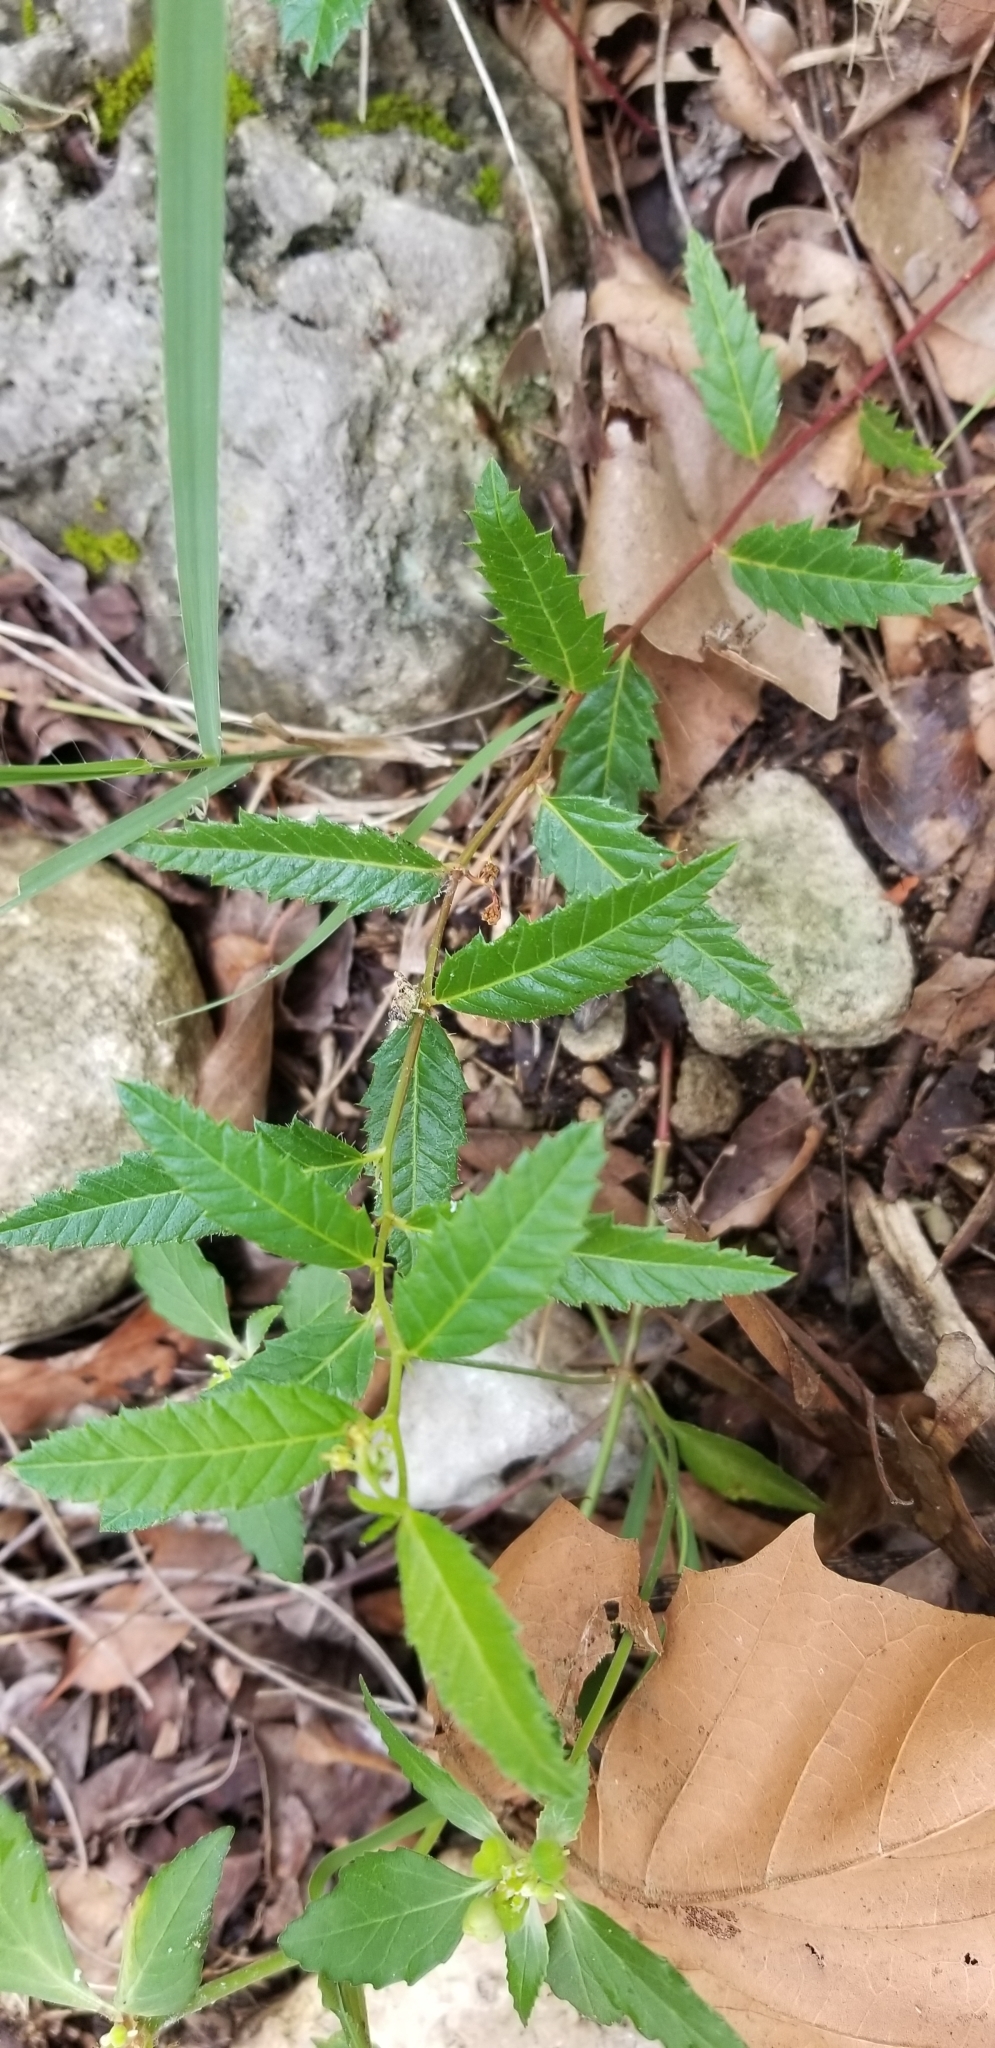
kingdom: Plantae
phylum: Tracheophyta
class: Magnoliopsida
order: Malpighiales
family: Euphorbiaceae
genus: Tragia
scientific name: Tragia nigricans
